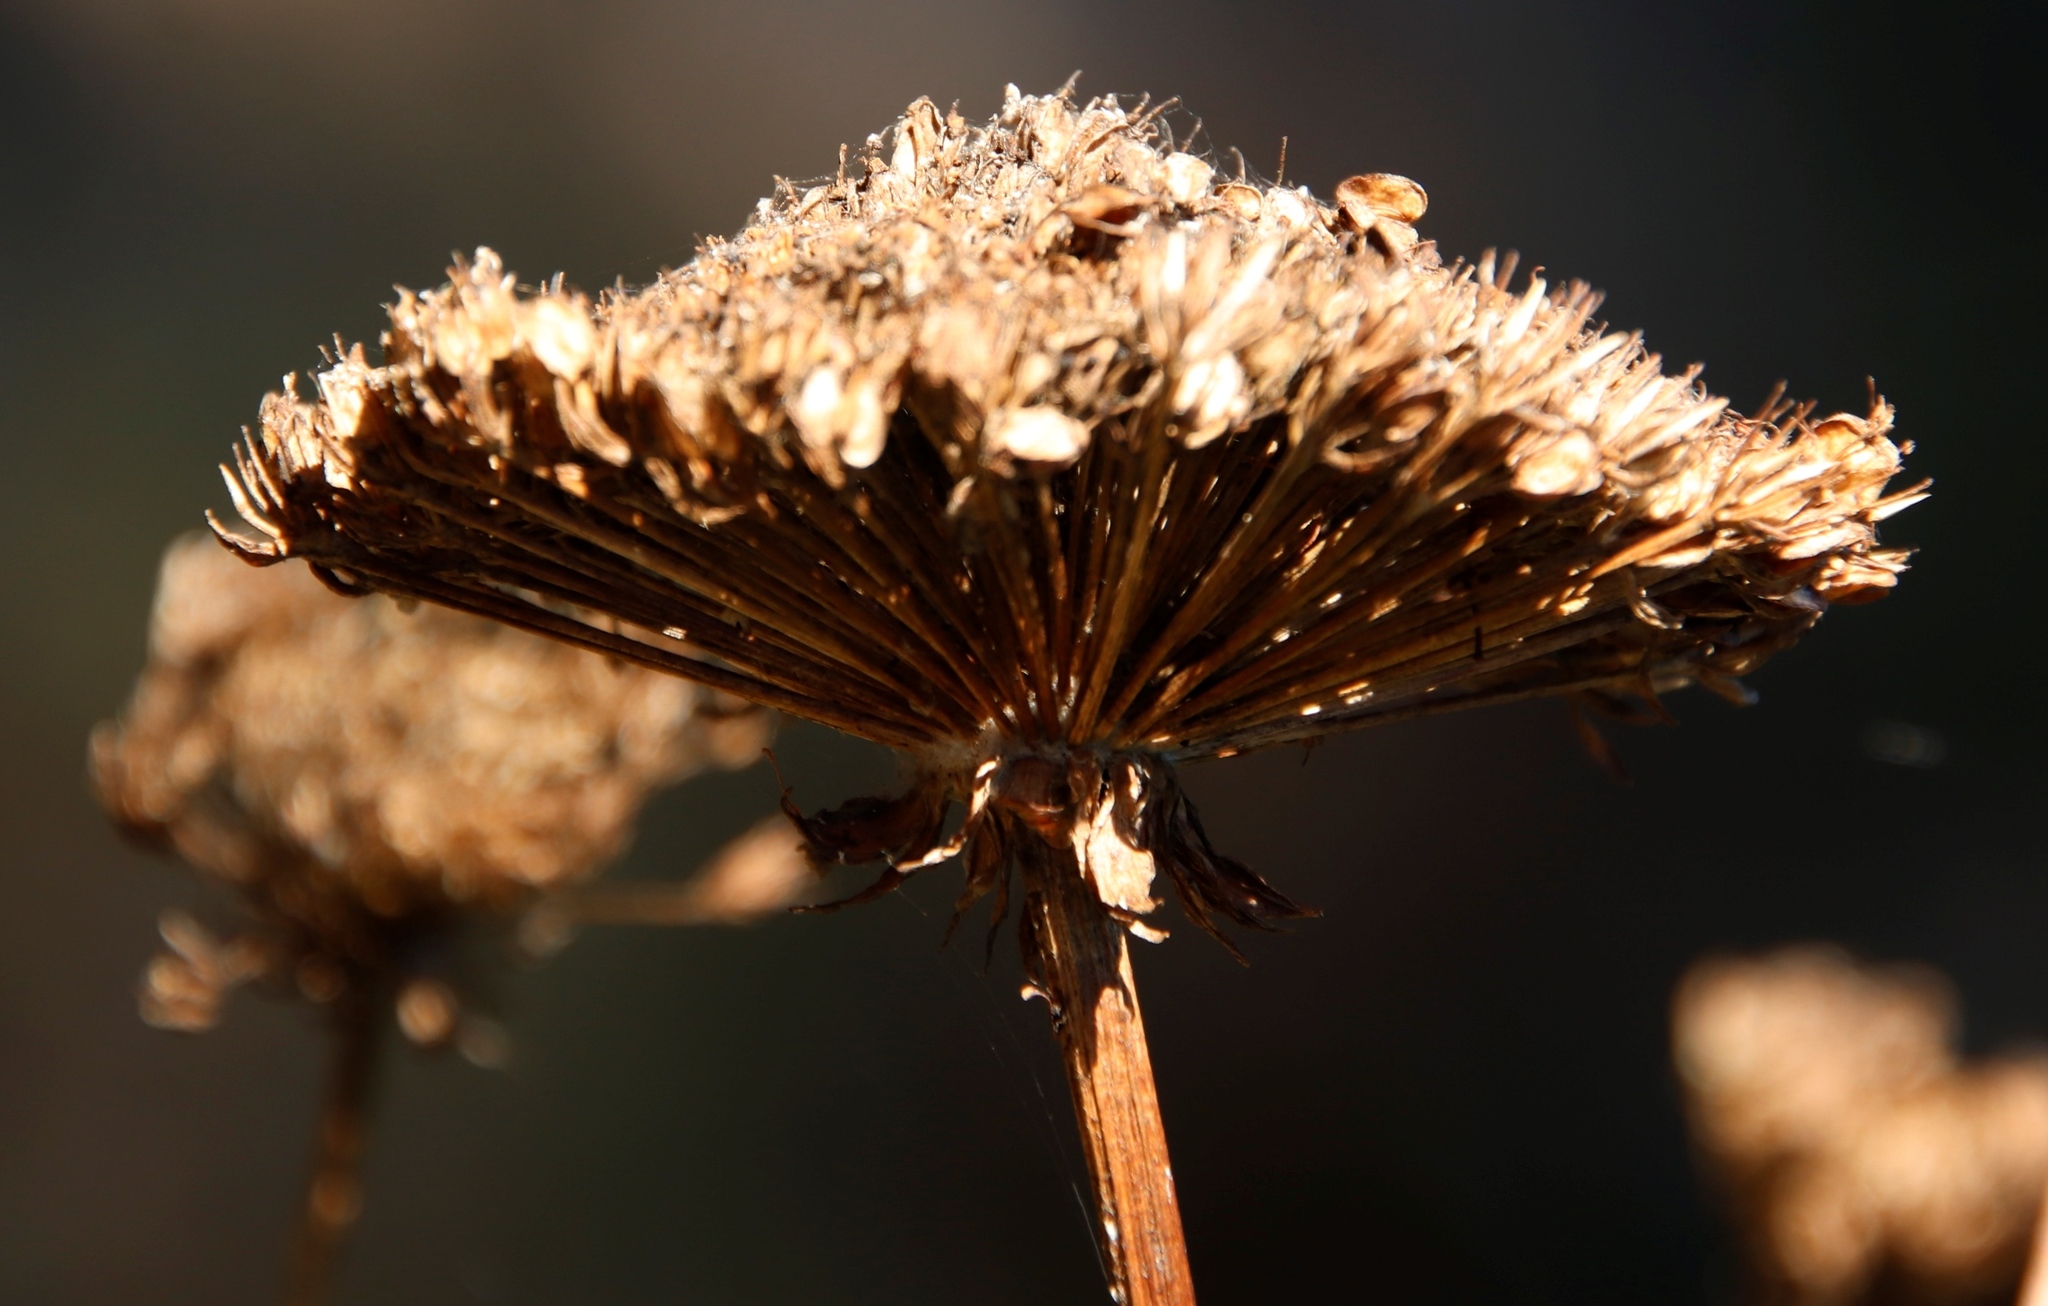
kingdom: Plantae
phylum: Tracheophyta
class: Magnoliopsida
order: Apiales
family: Apiaceae
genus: Hermas
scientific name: Hermas villosa
